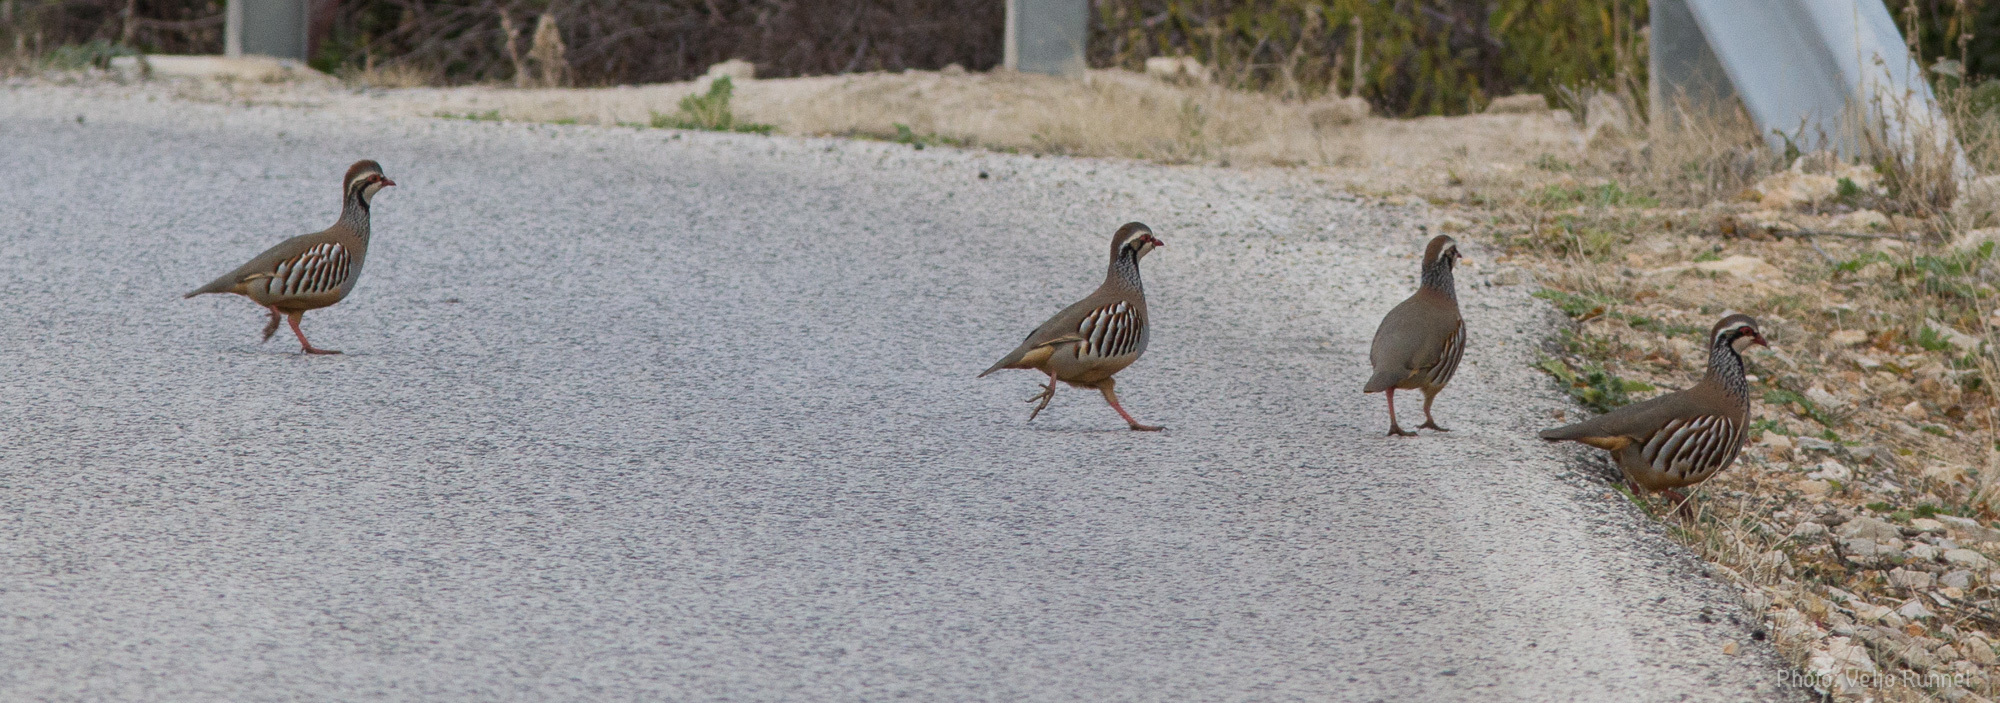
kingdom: Animalia
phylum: Chordata
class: Aves
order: Galliformes
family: Phasianidae
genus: Alectoris
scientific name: Alectoris rufa
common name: Red-legged partridge
